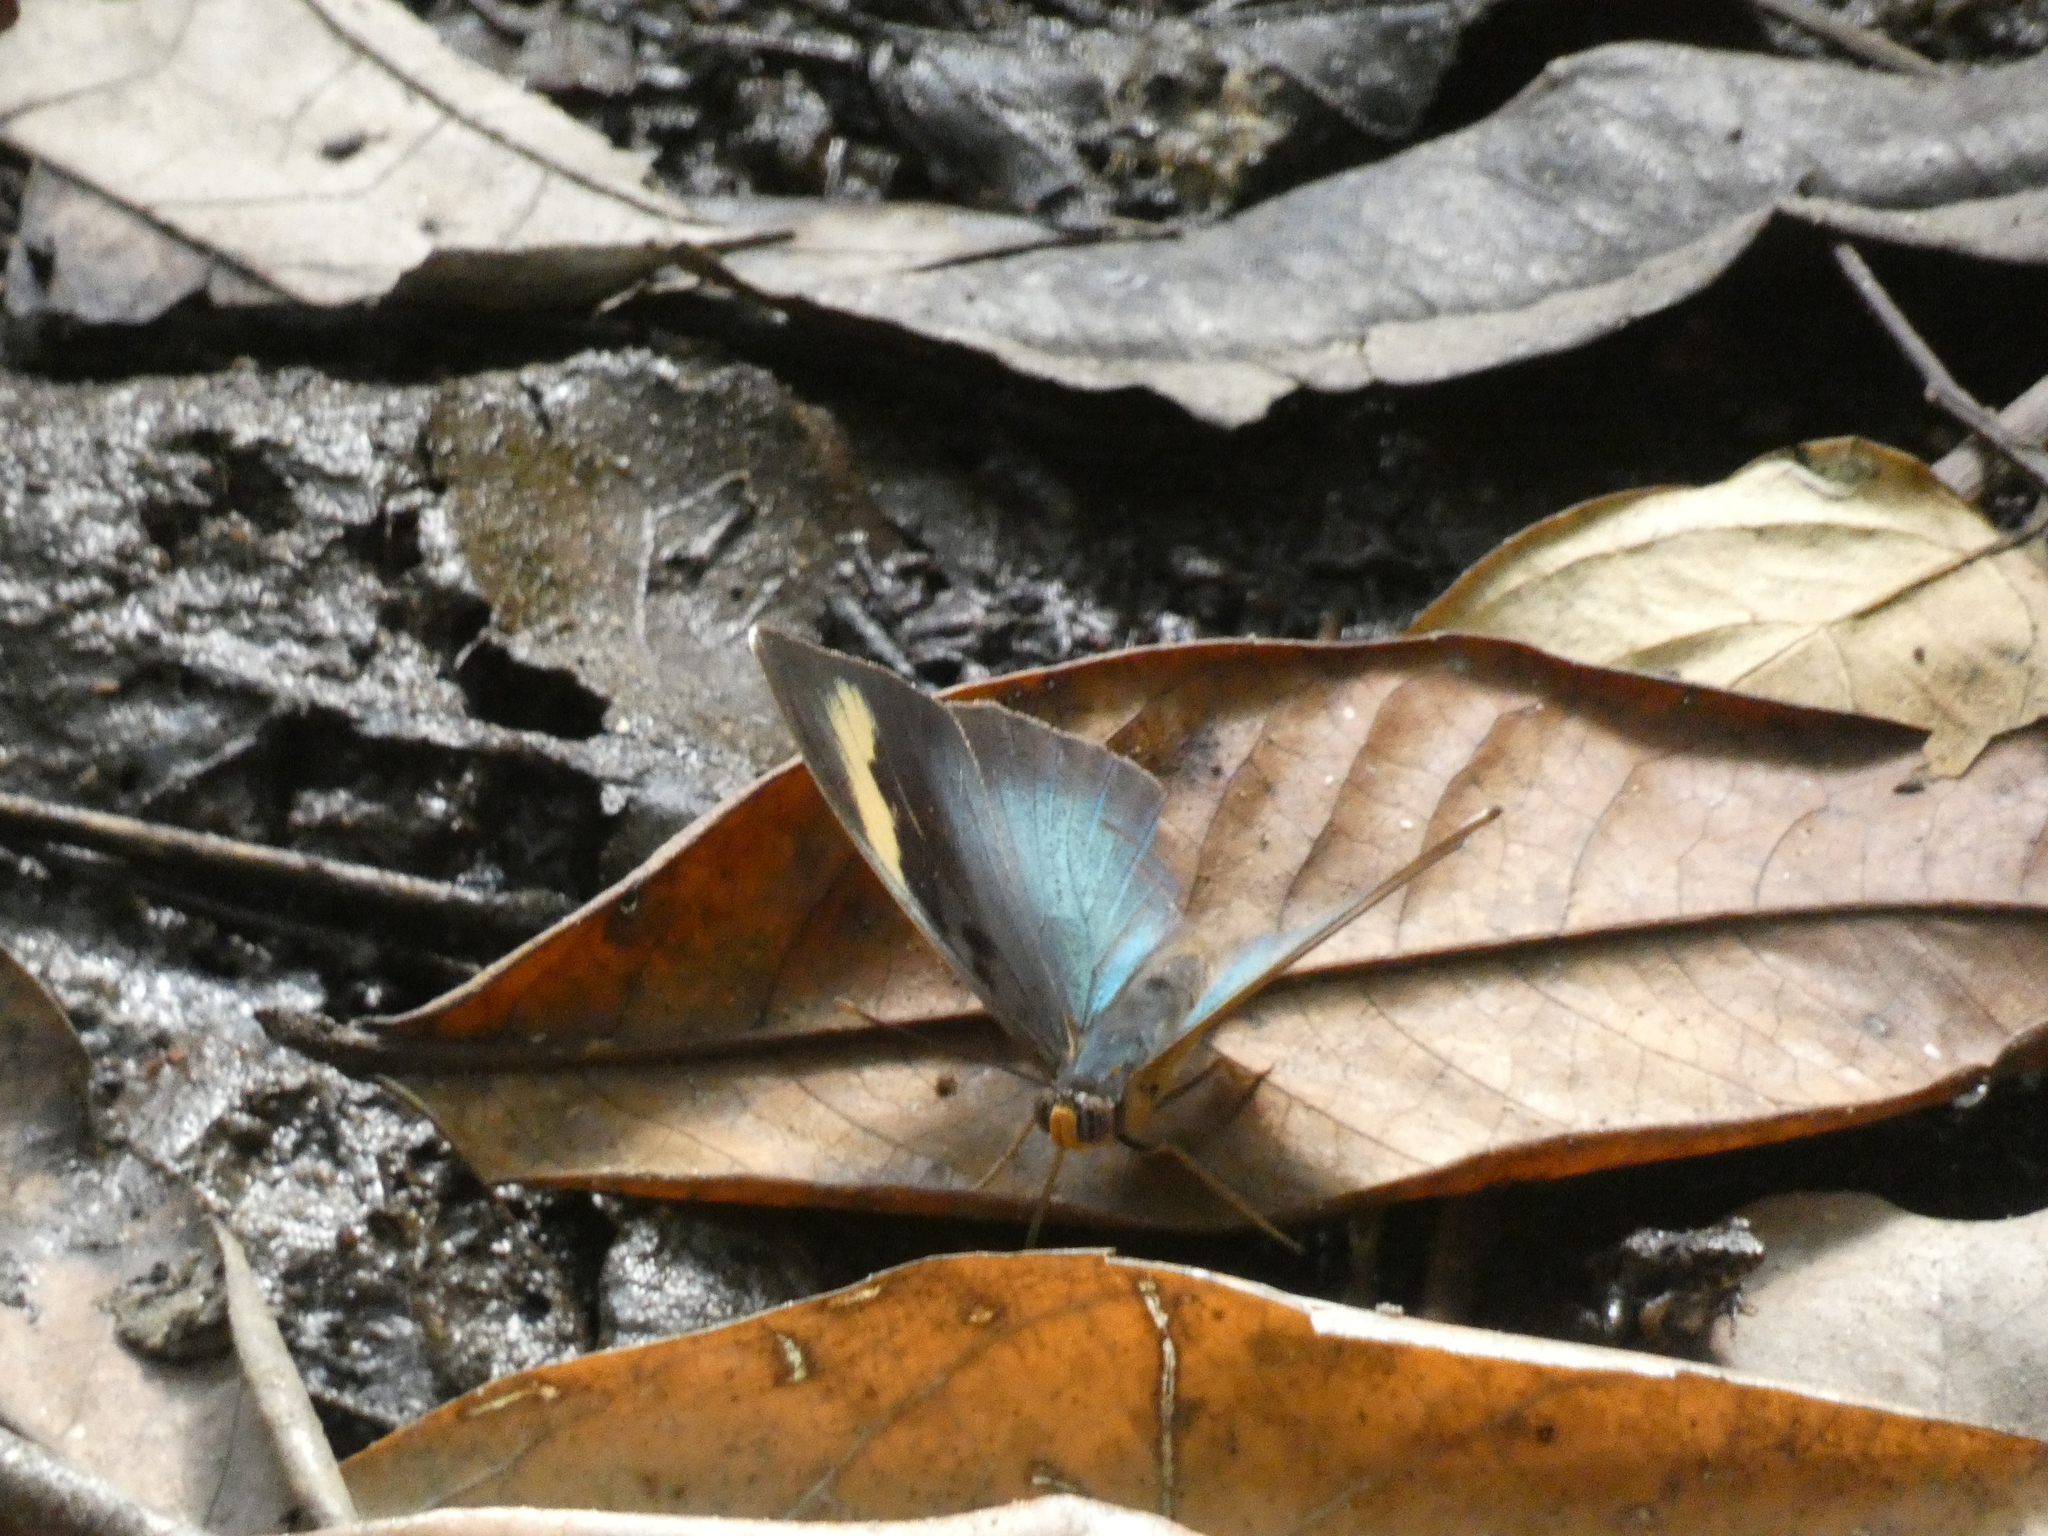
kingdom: Animalia
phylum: Arthropoda
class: Insecta
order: Lepidoptera
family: Nymphalidae
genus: Euphaedra
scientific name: Euphaedra medon
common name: Widespread forester
